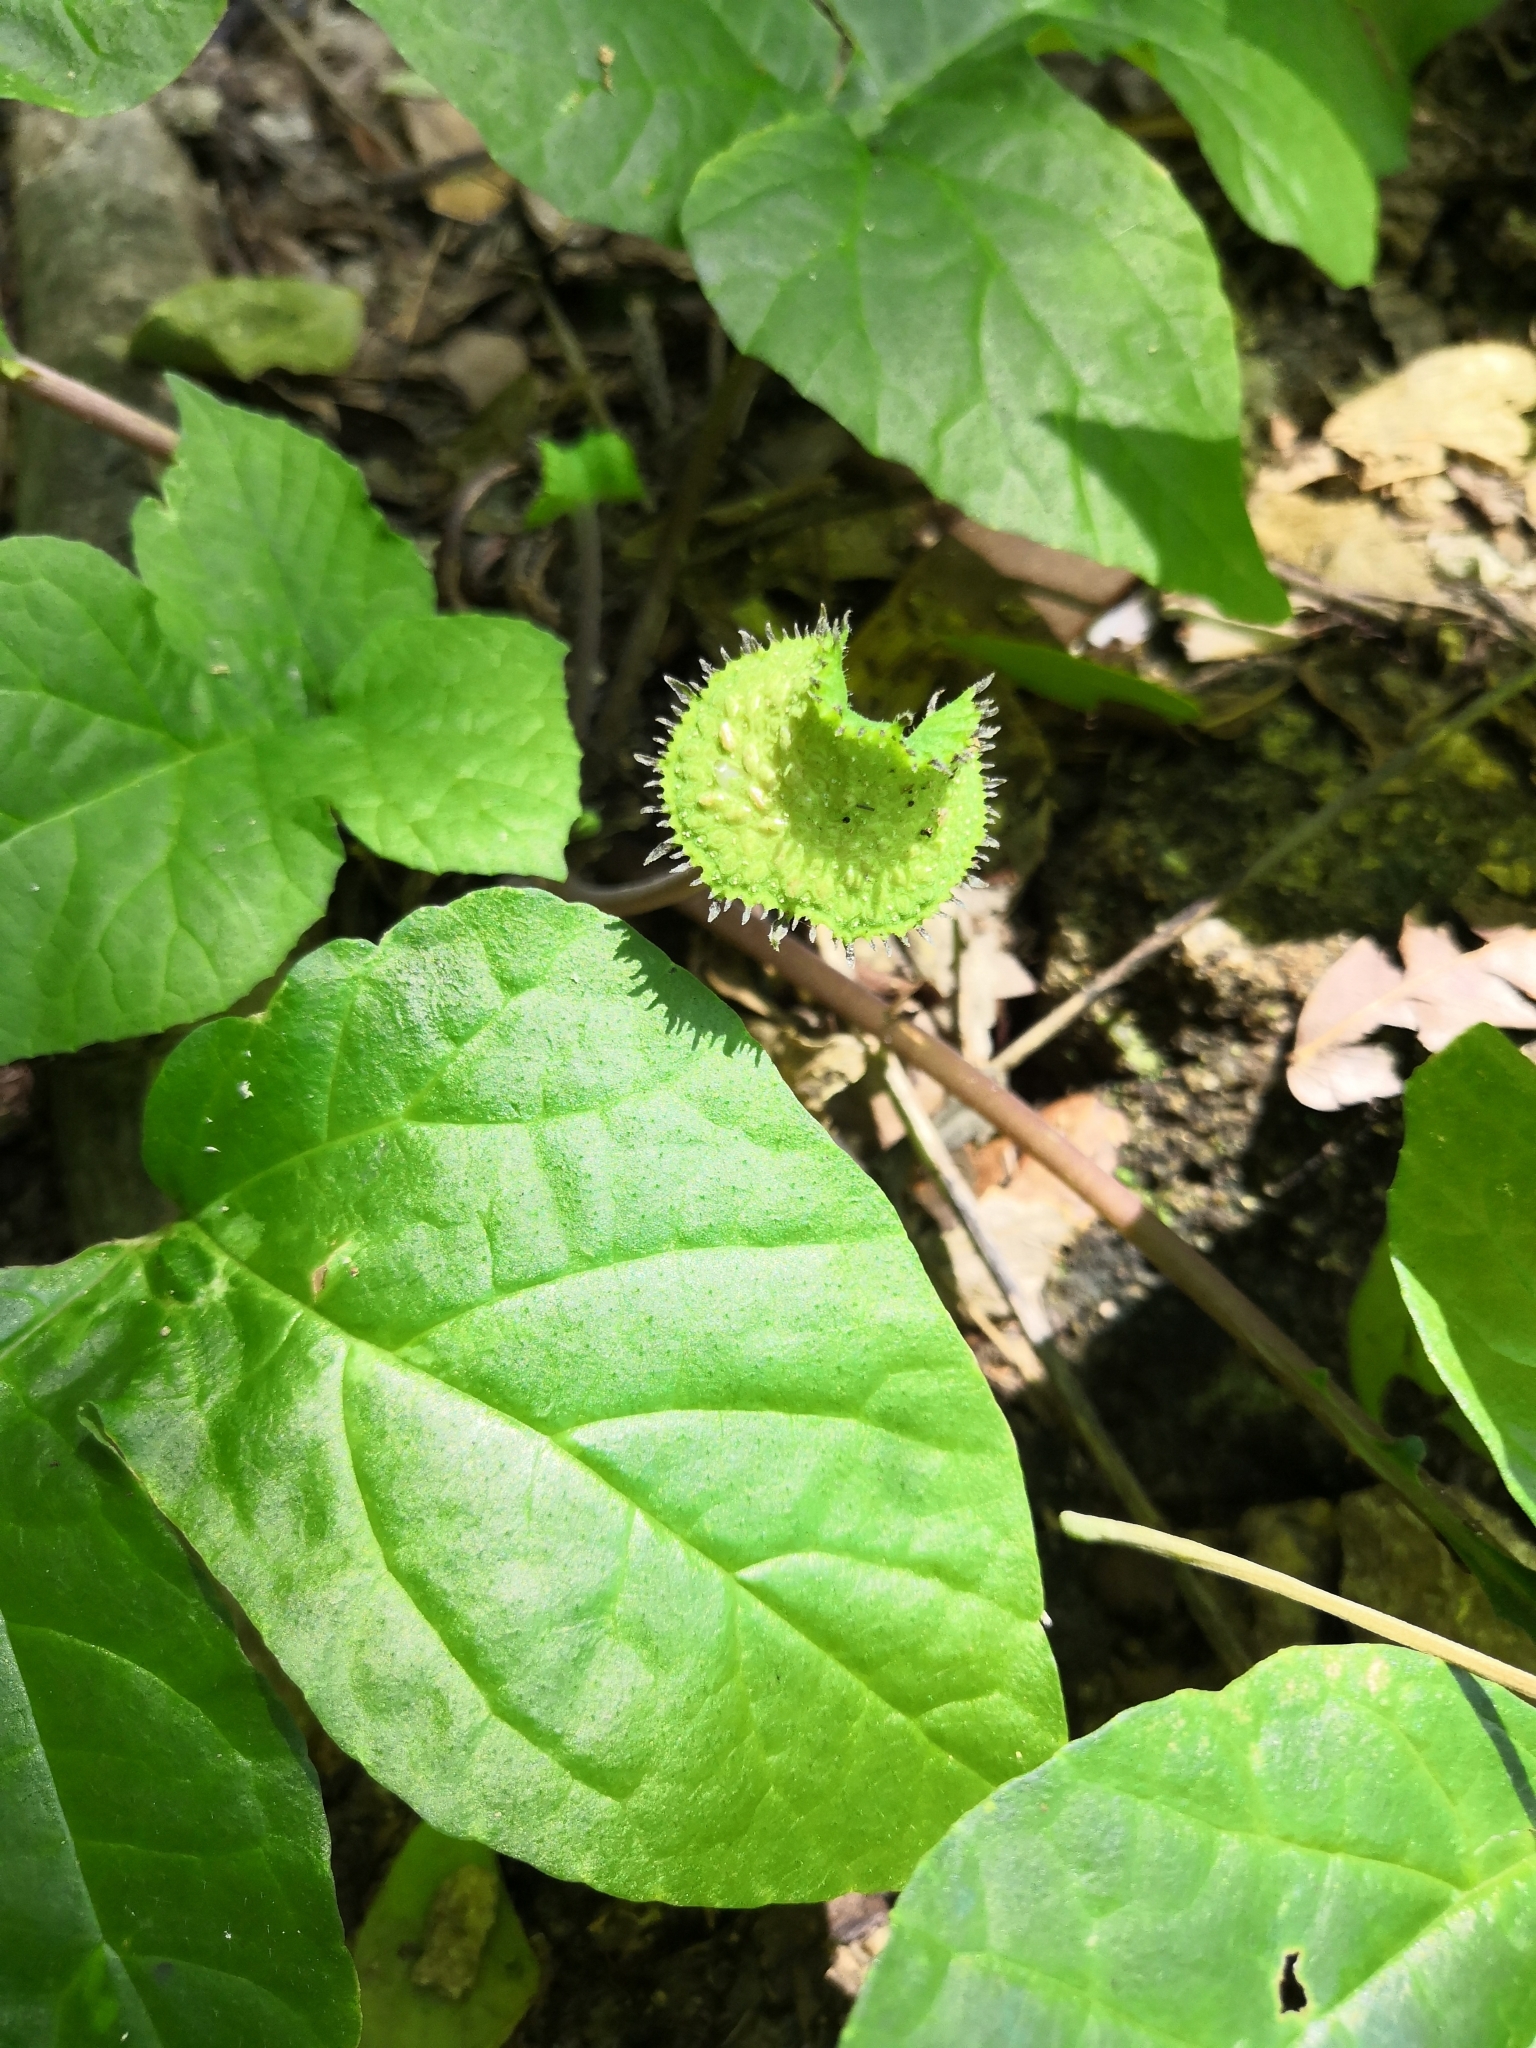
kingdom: Plantae
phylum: Tracheophyta
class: Magnoliopsida
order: Rosales
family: Moraceae
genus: Dorstenia
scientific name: Dorstenia contrajerva
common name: Tusilla
